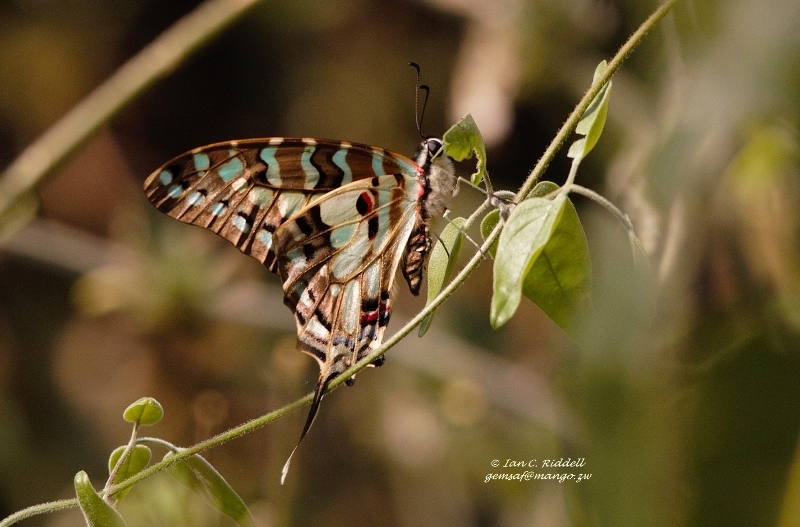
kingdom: Animalia
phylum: Arthropoda
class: Insecta
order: Lepidoptera
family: Papilionidae
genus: Graphium
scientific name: Graphium antheus
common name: Large striped swordtail
